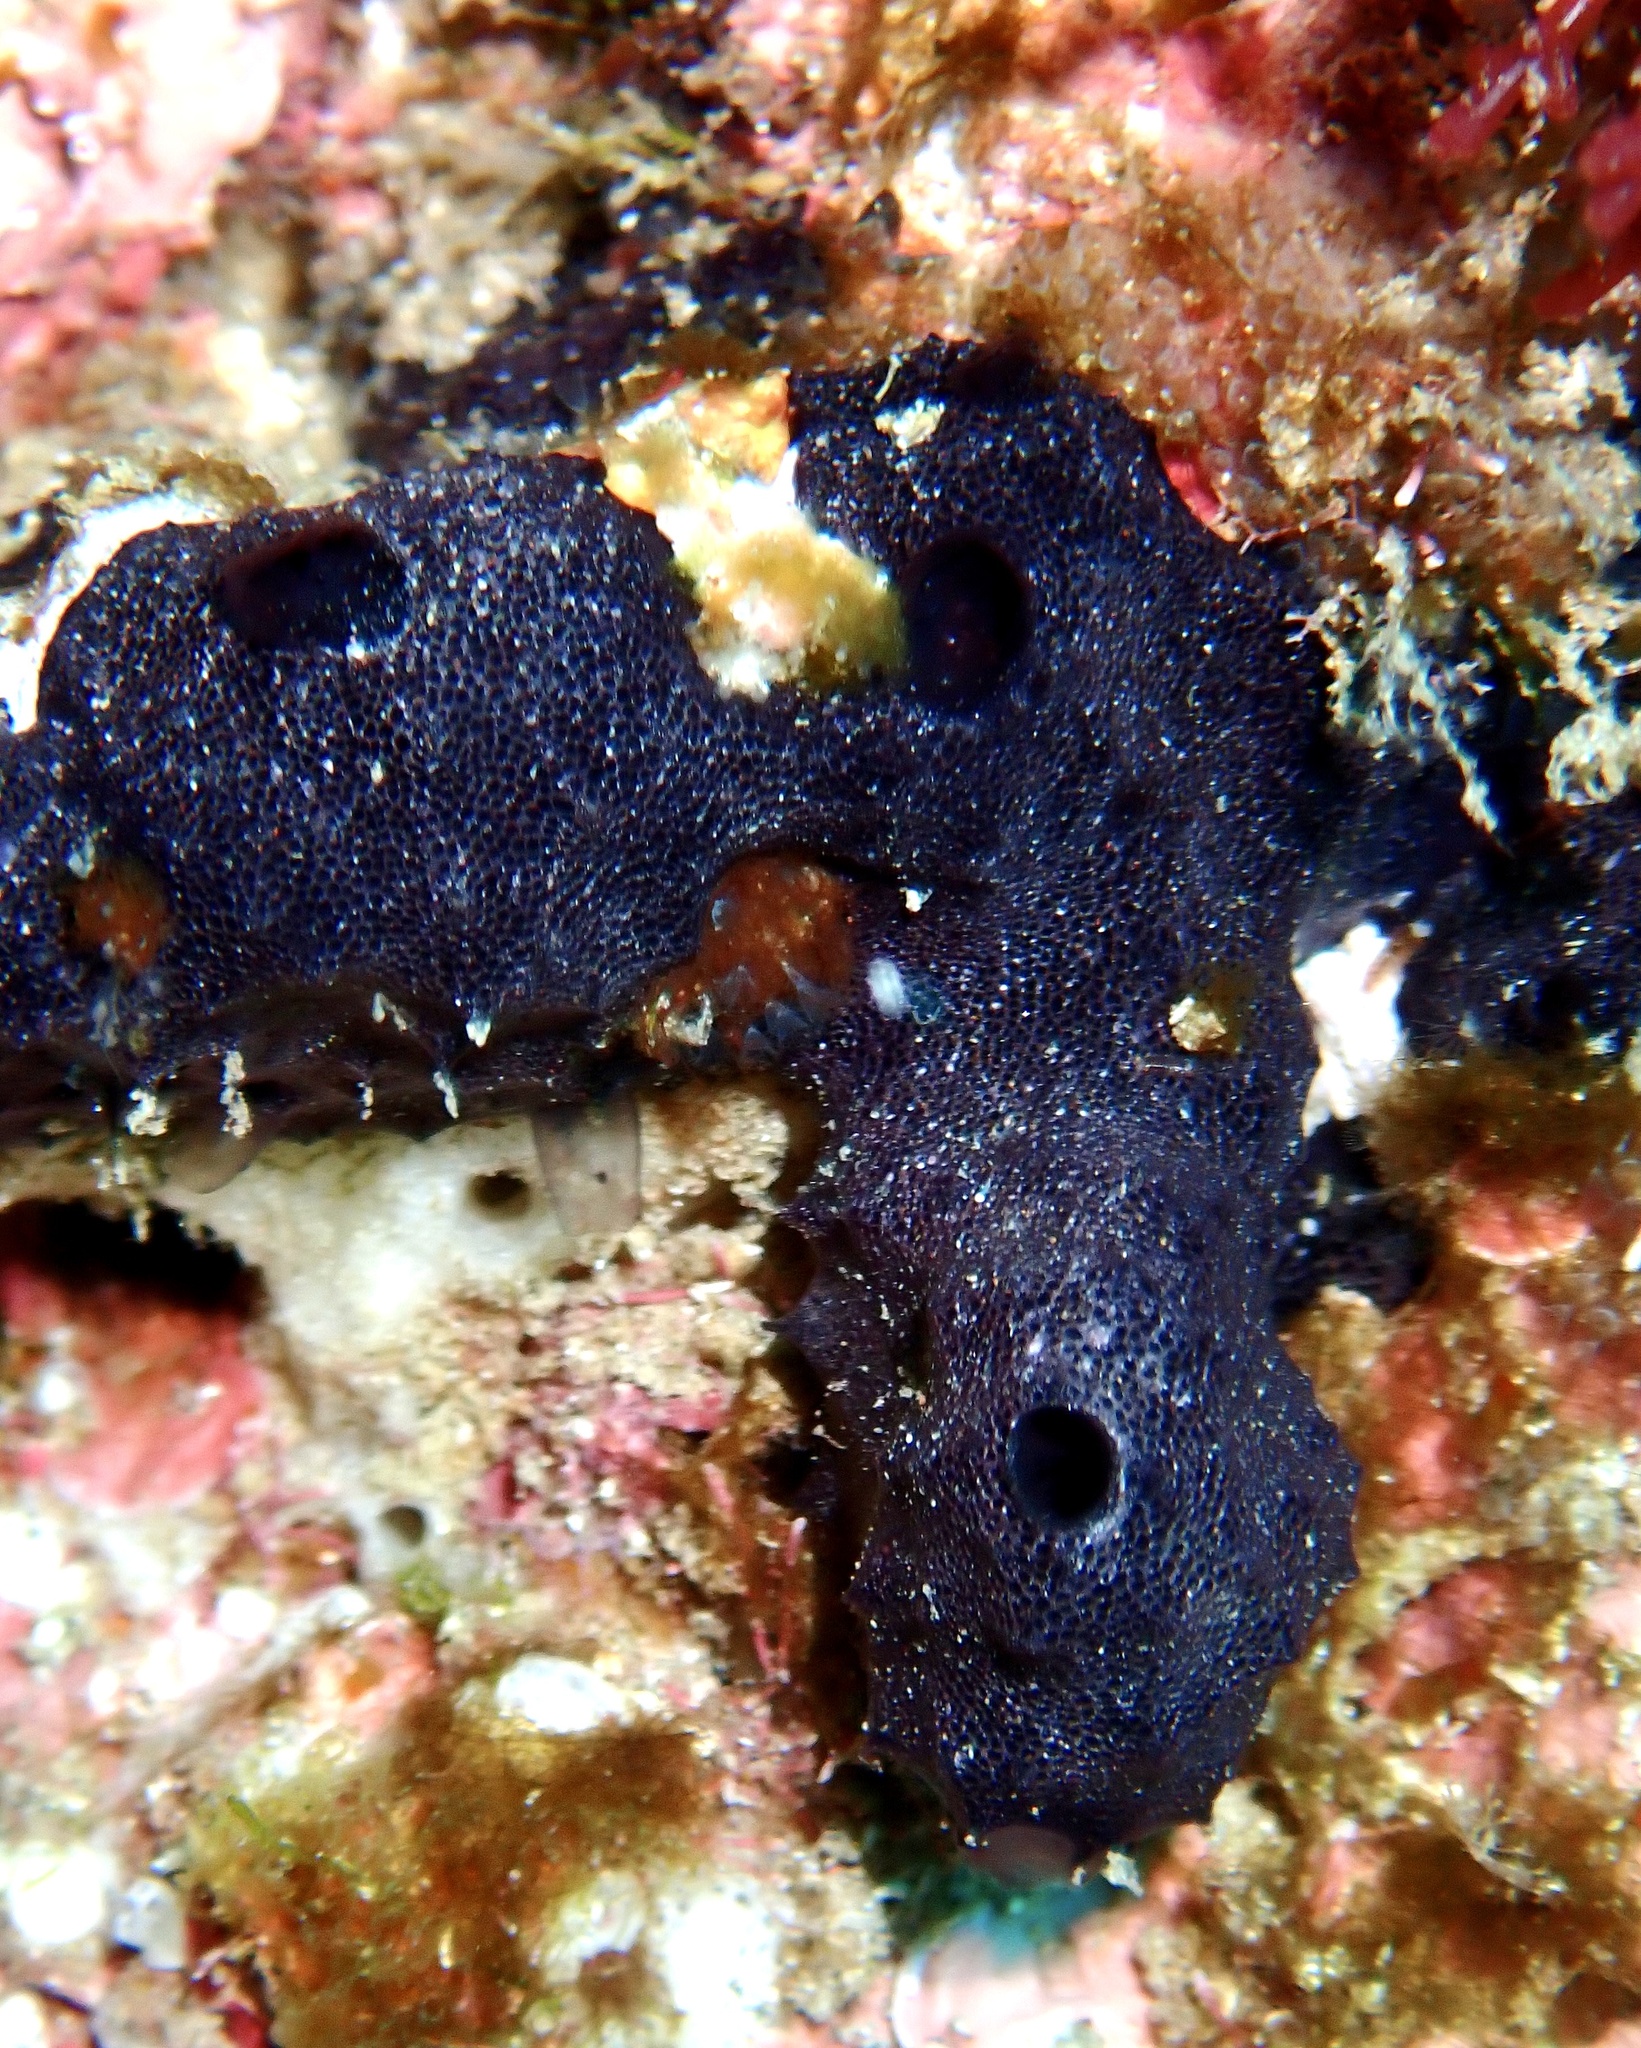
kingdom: Animalia
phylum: Porifera
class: Demospongiae
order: Dendroceratida
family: Darwinellidae
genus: Chelonaplysilla
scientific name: Chelonaplysilla noevus
